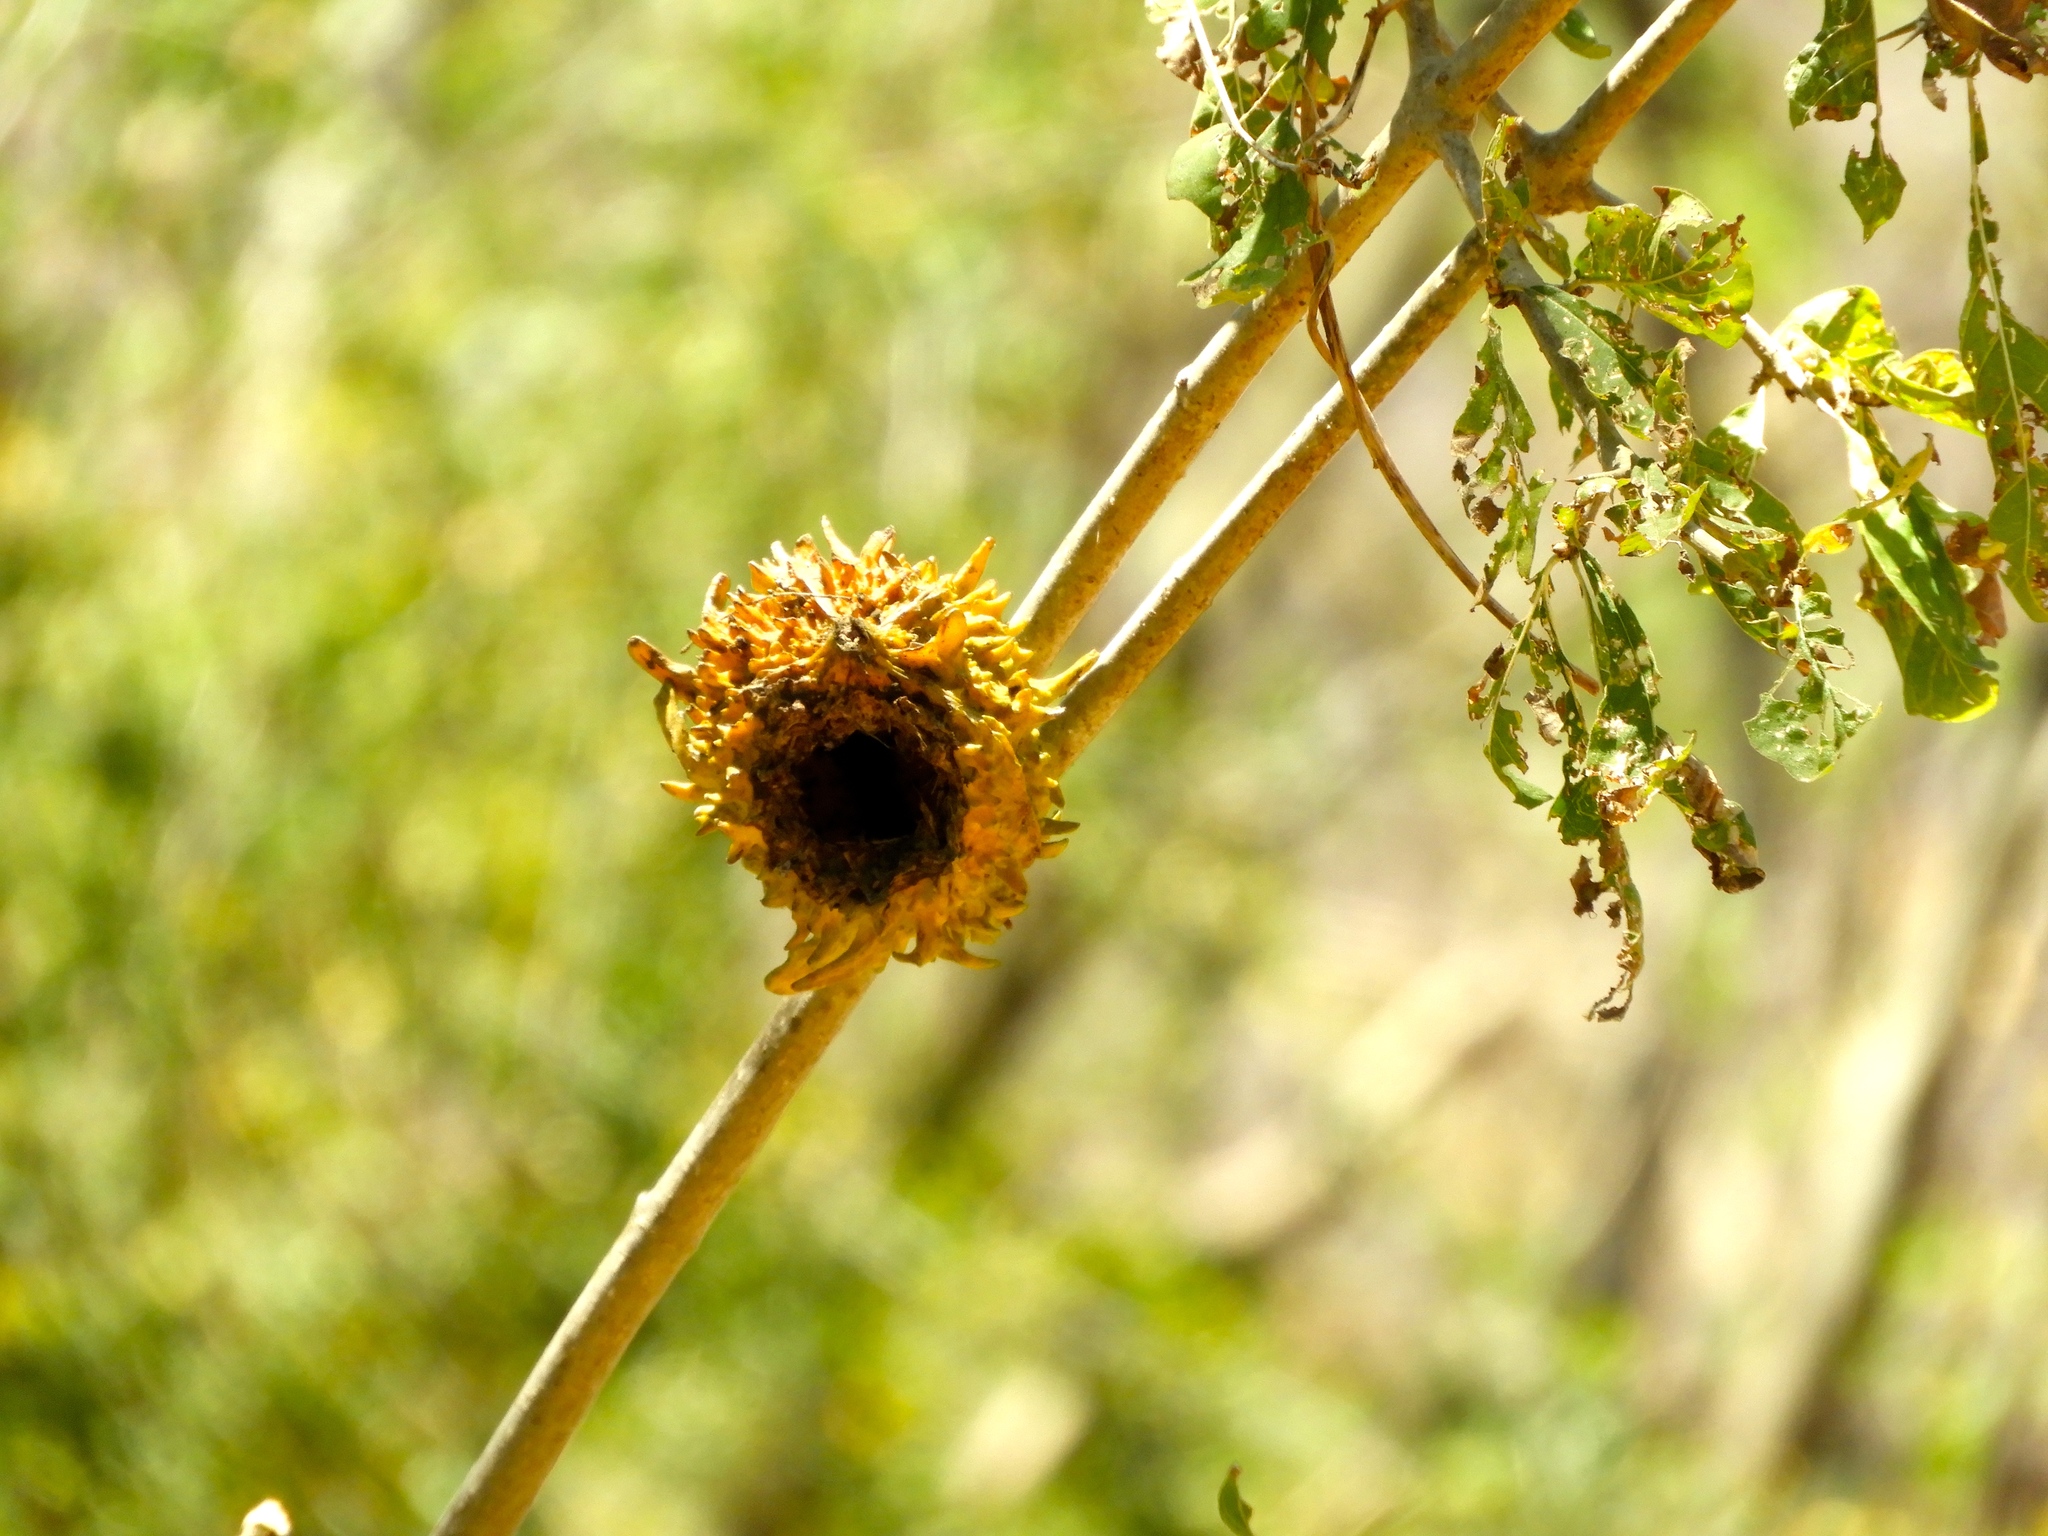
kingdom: Plantae
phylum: Tracheophyta
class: Magnoliopsida
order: Gentianales
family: Rubiaceae
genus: Randia
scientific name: Randia echinocarpa
